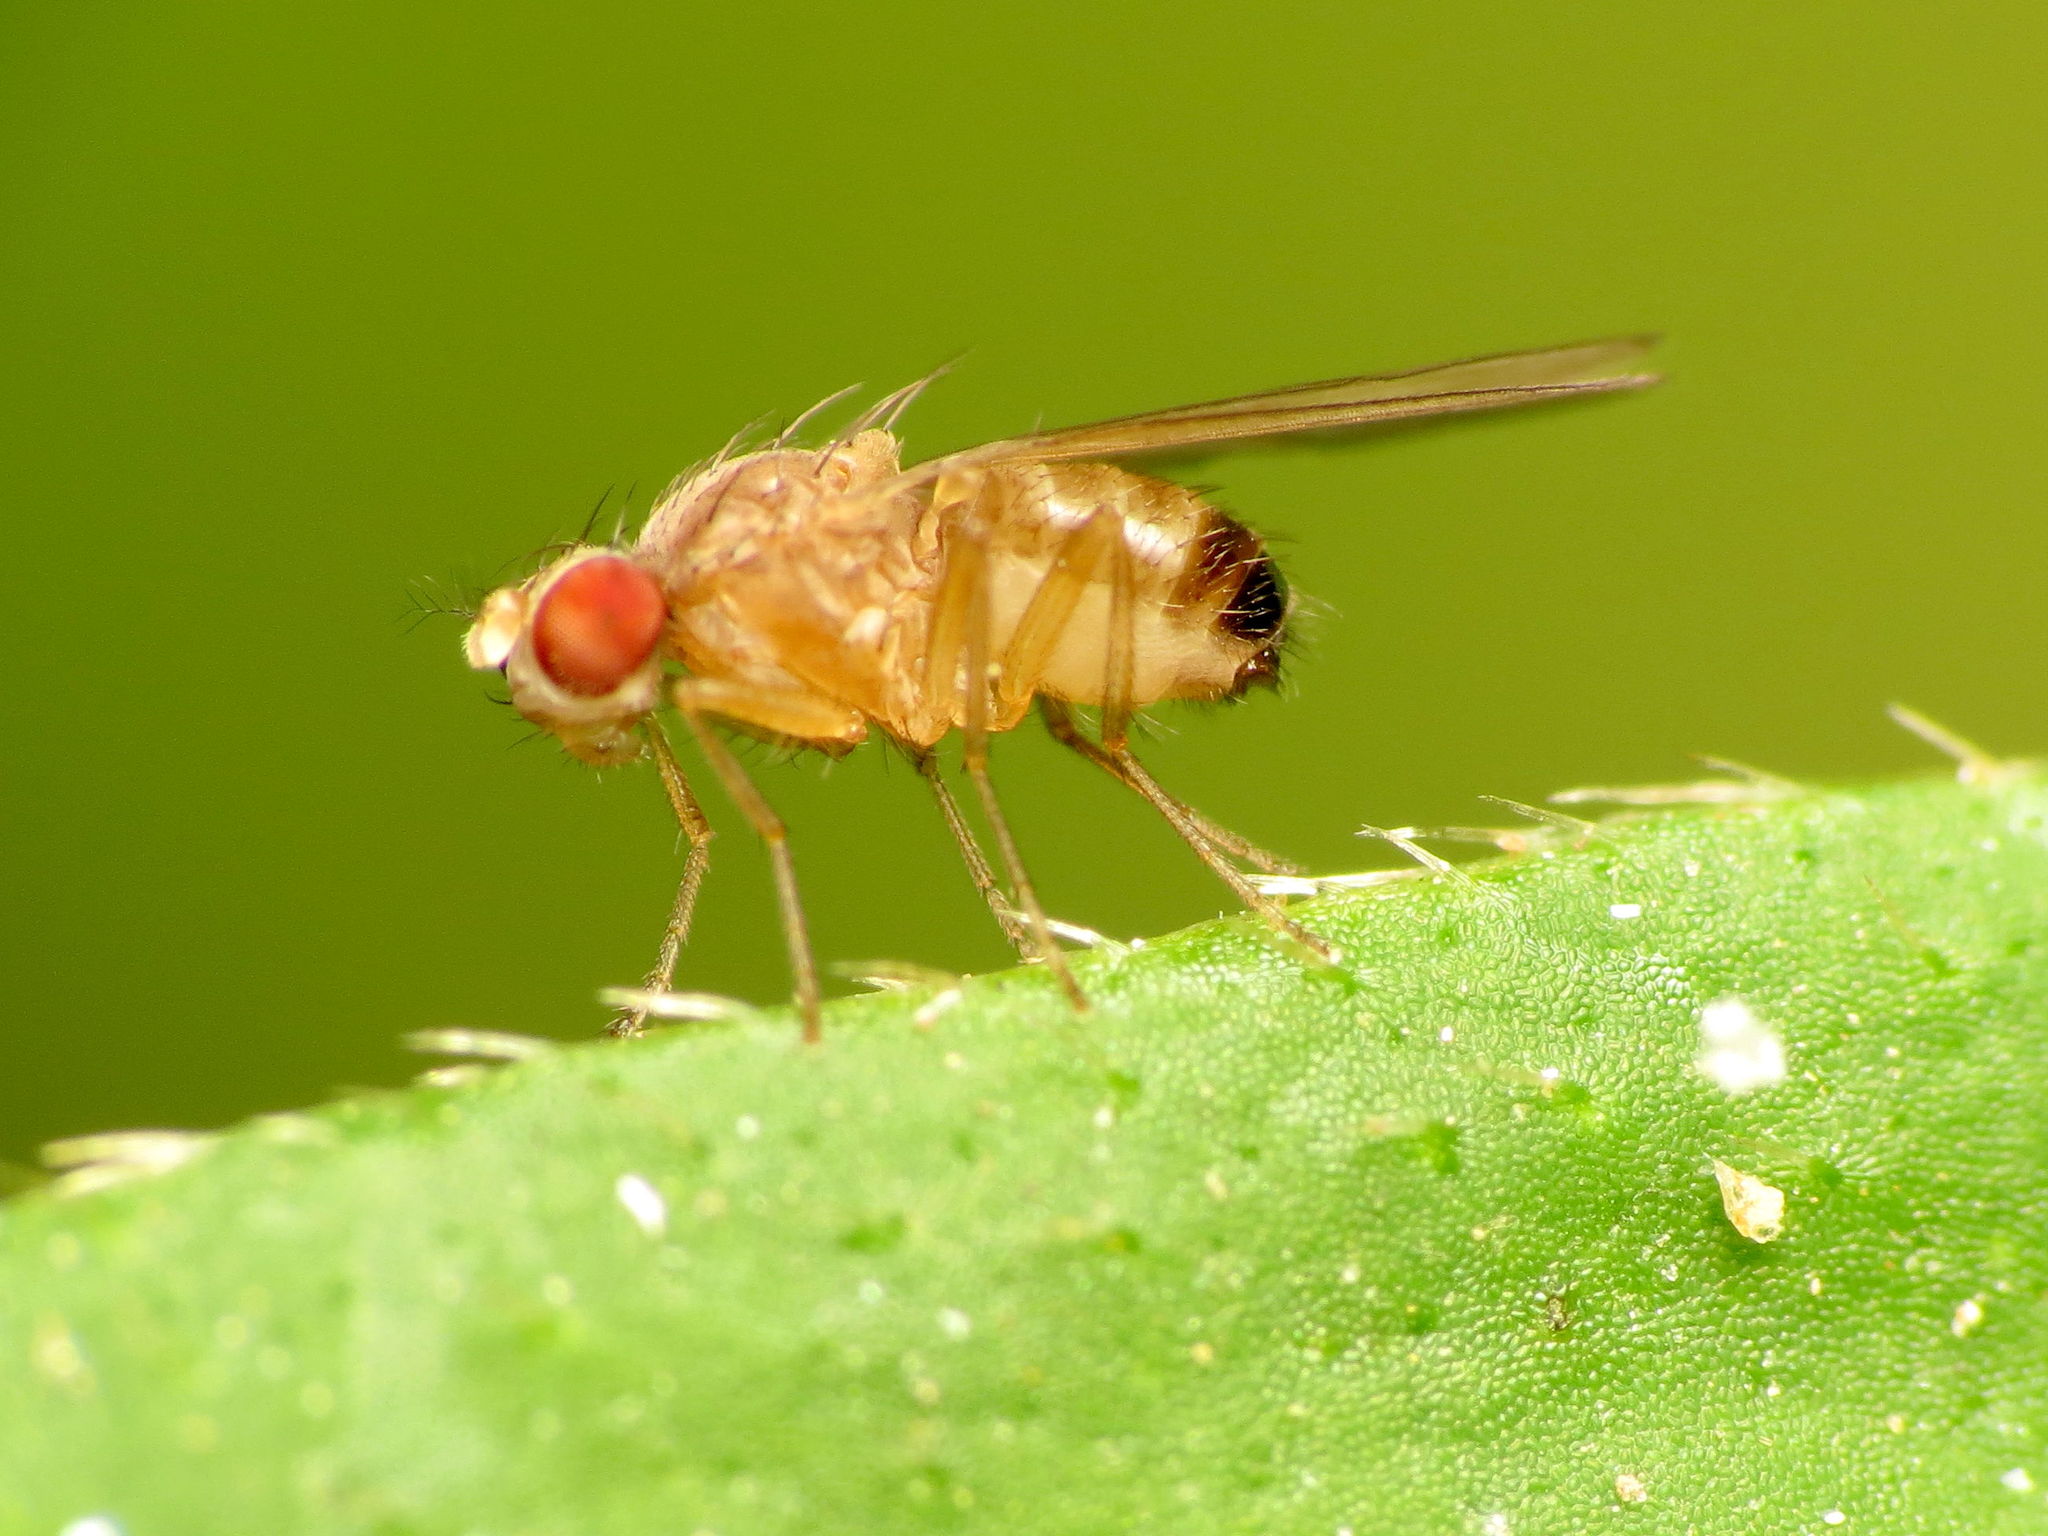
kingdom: Animalia
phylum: Arthropoda
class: Insecta
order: Diptera
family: Drosophilidae
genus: Scaptomyza
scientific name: Scaptomyza pallida
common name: Pomace fly
